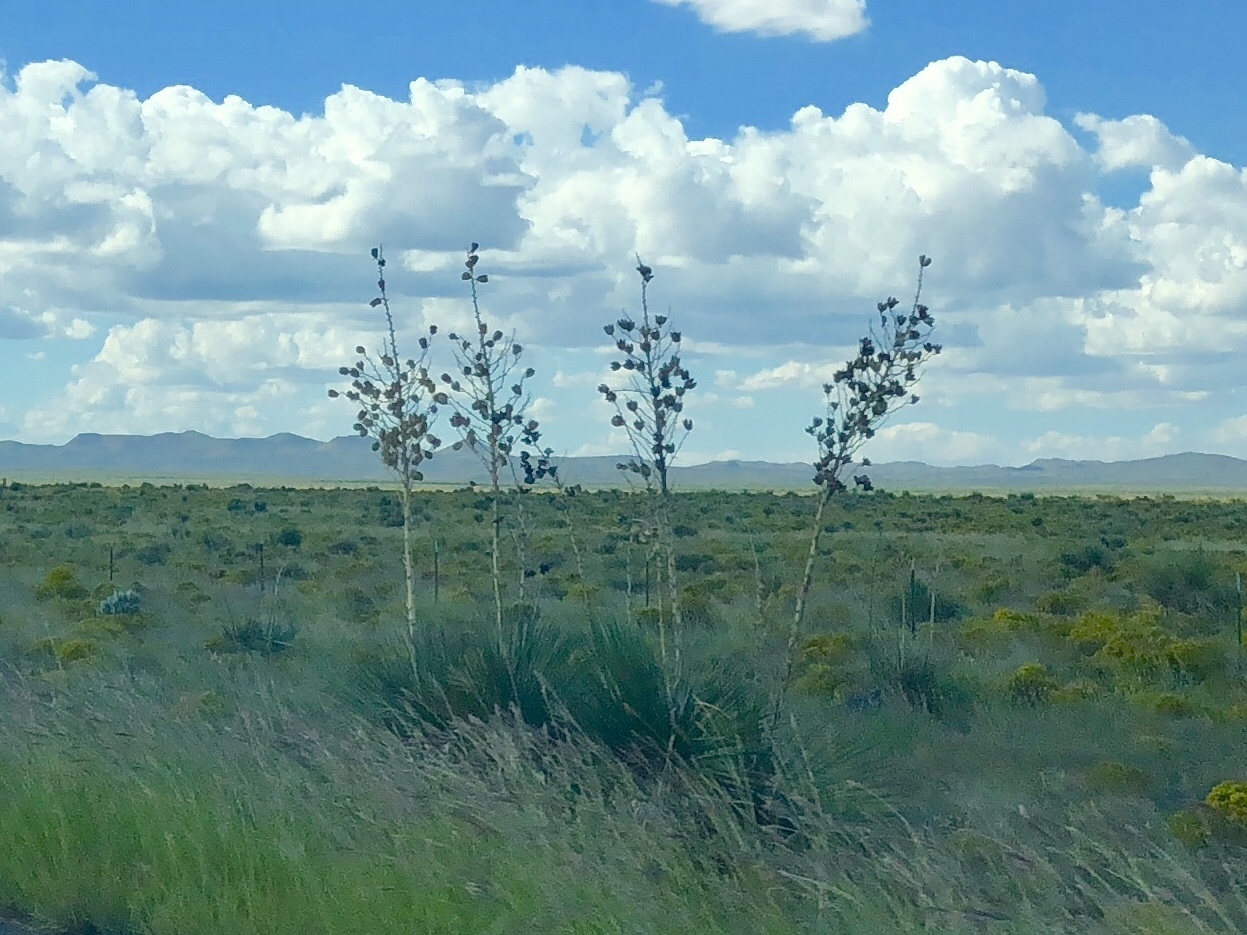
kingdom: Plantae
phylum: Tracheophyta
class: Liliopsida
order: Asparagales
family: Asparagaceae
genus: Yucca
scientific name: Yucca elata
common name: Palmella
